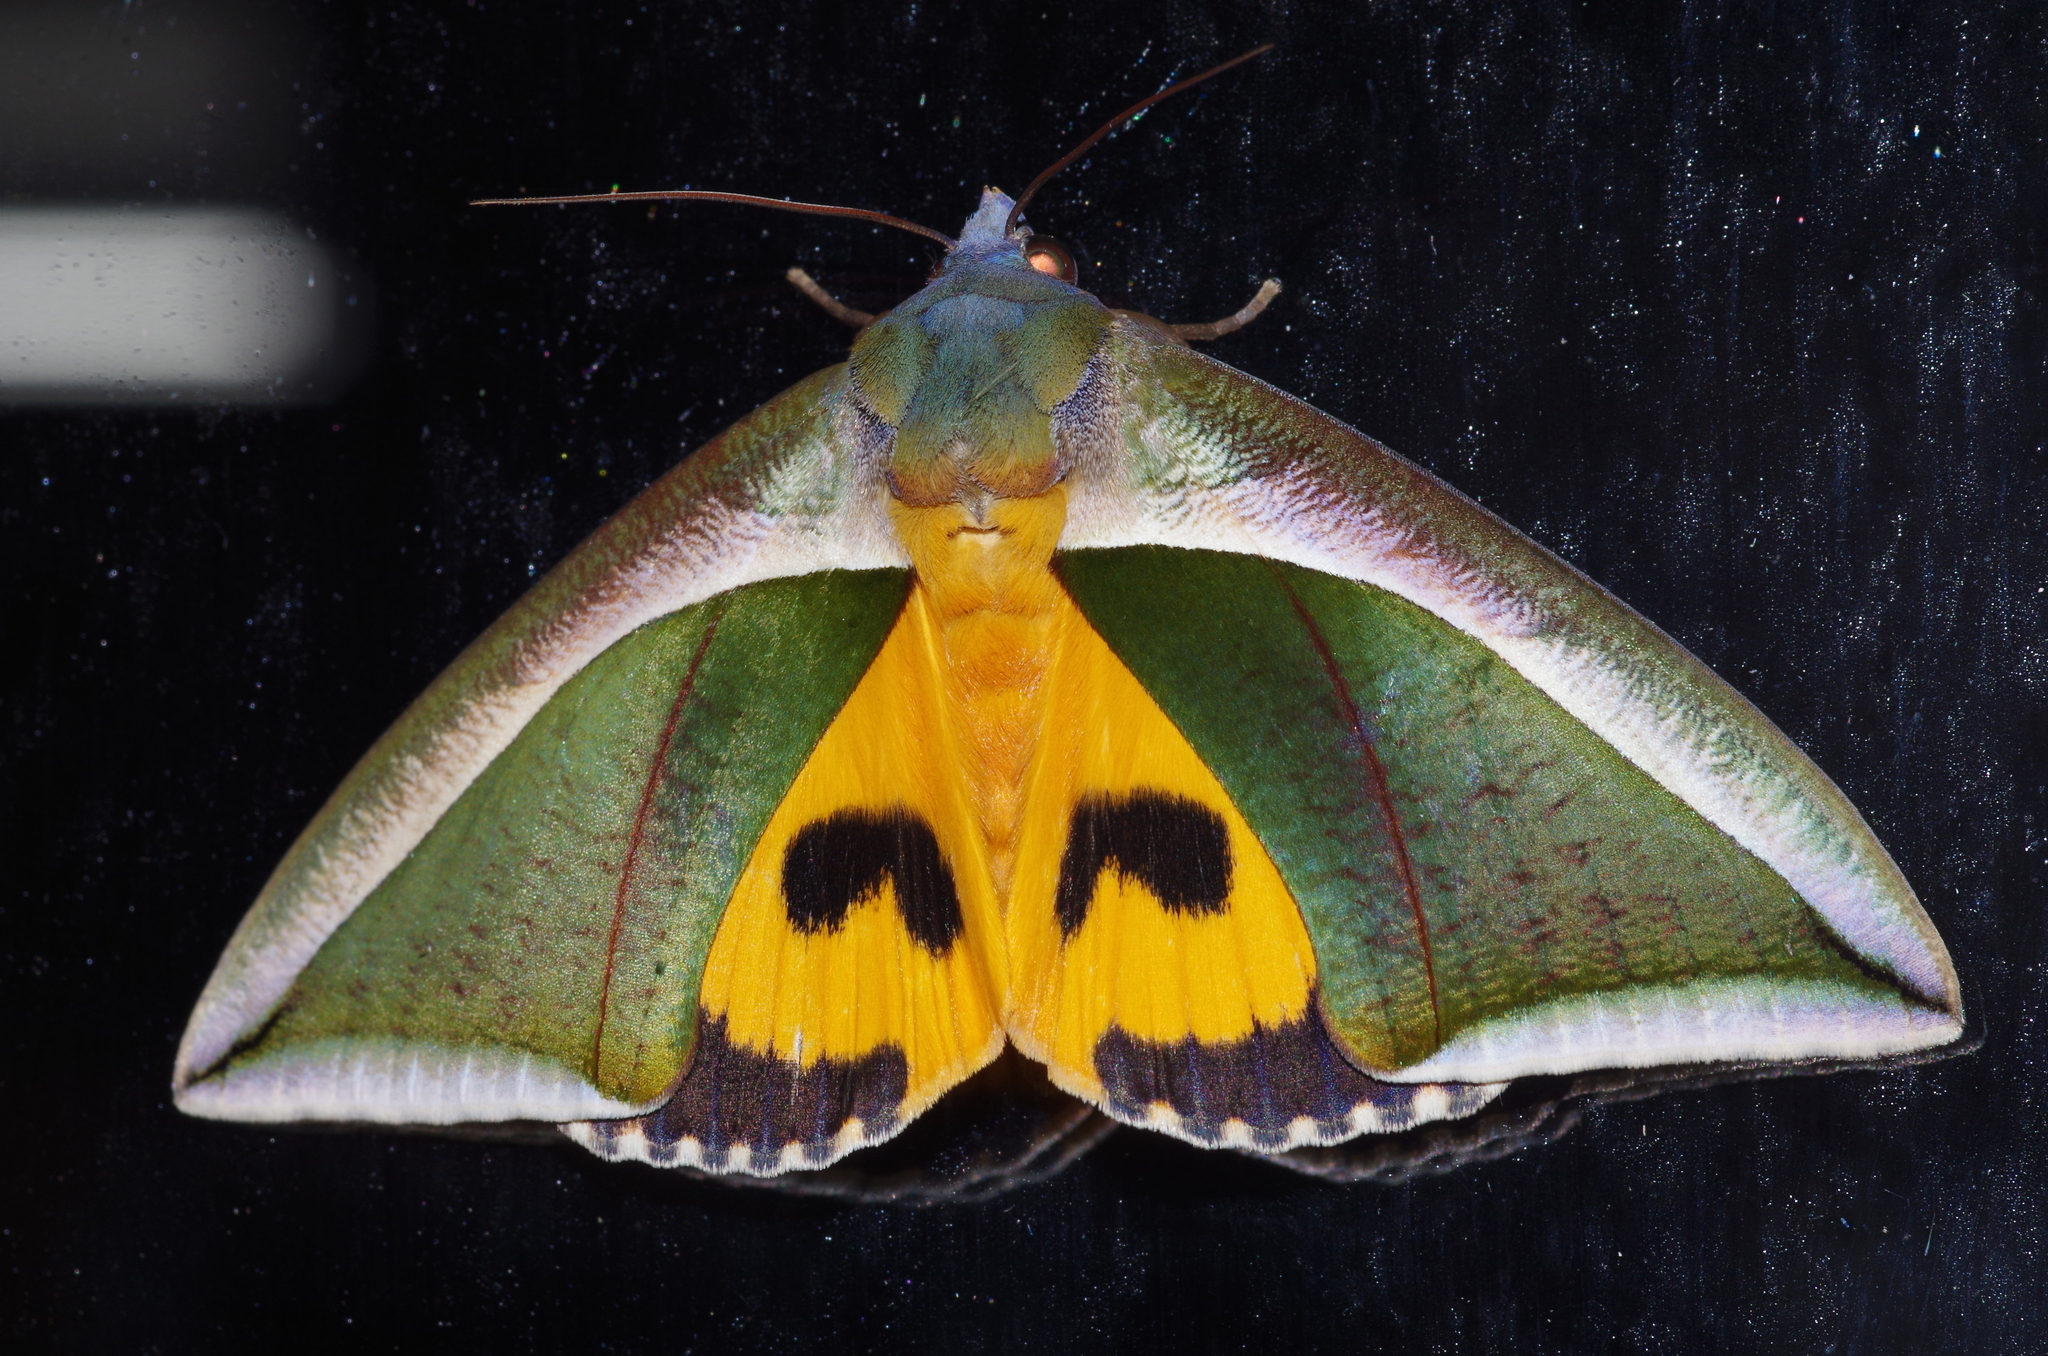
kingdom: Animalia
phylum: Arthropoda
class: Insecta
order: Lepidoptera
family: Erebidae
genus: Eudocima
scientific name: Eudocima salaminia
